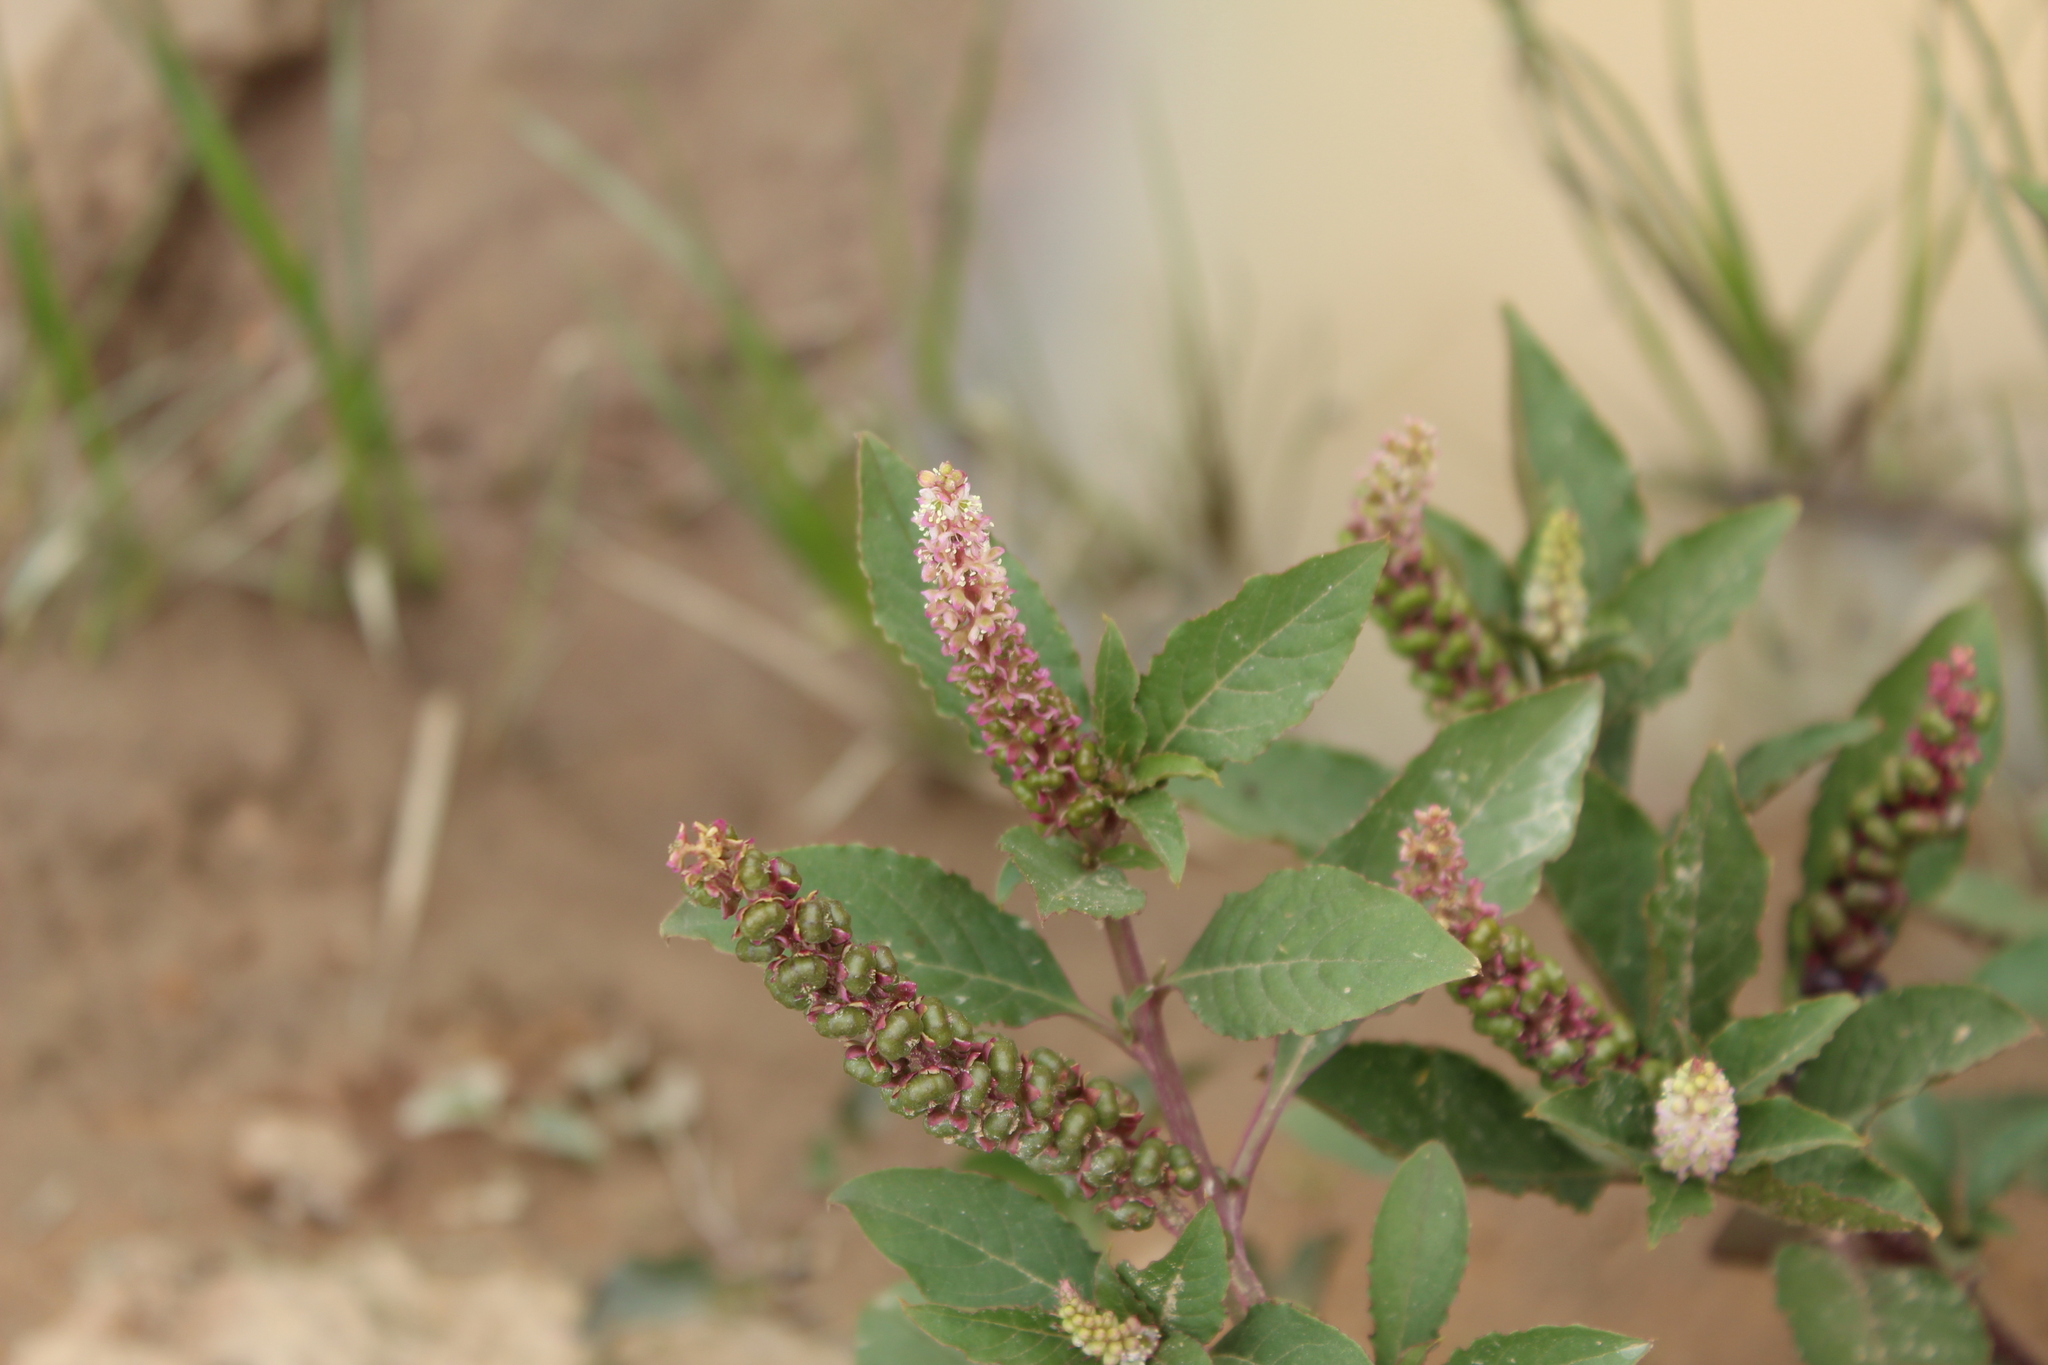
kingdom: Plantae
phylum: Tracheophyta
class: Magnoliopsida
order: Caryophyllales
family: Phytolaccaceae
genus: Phytolacca
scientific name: Phytolacca icosandra
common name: Button pokeweed
